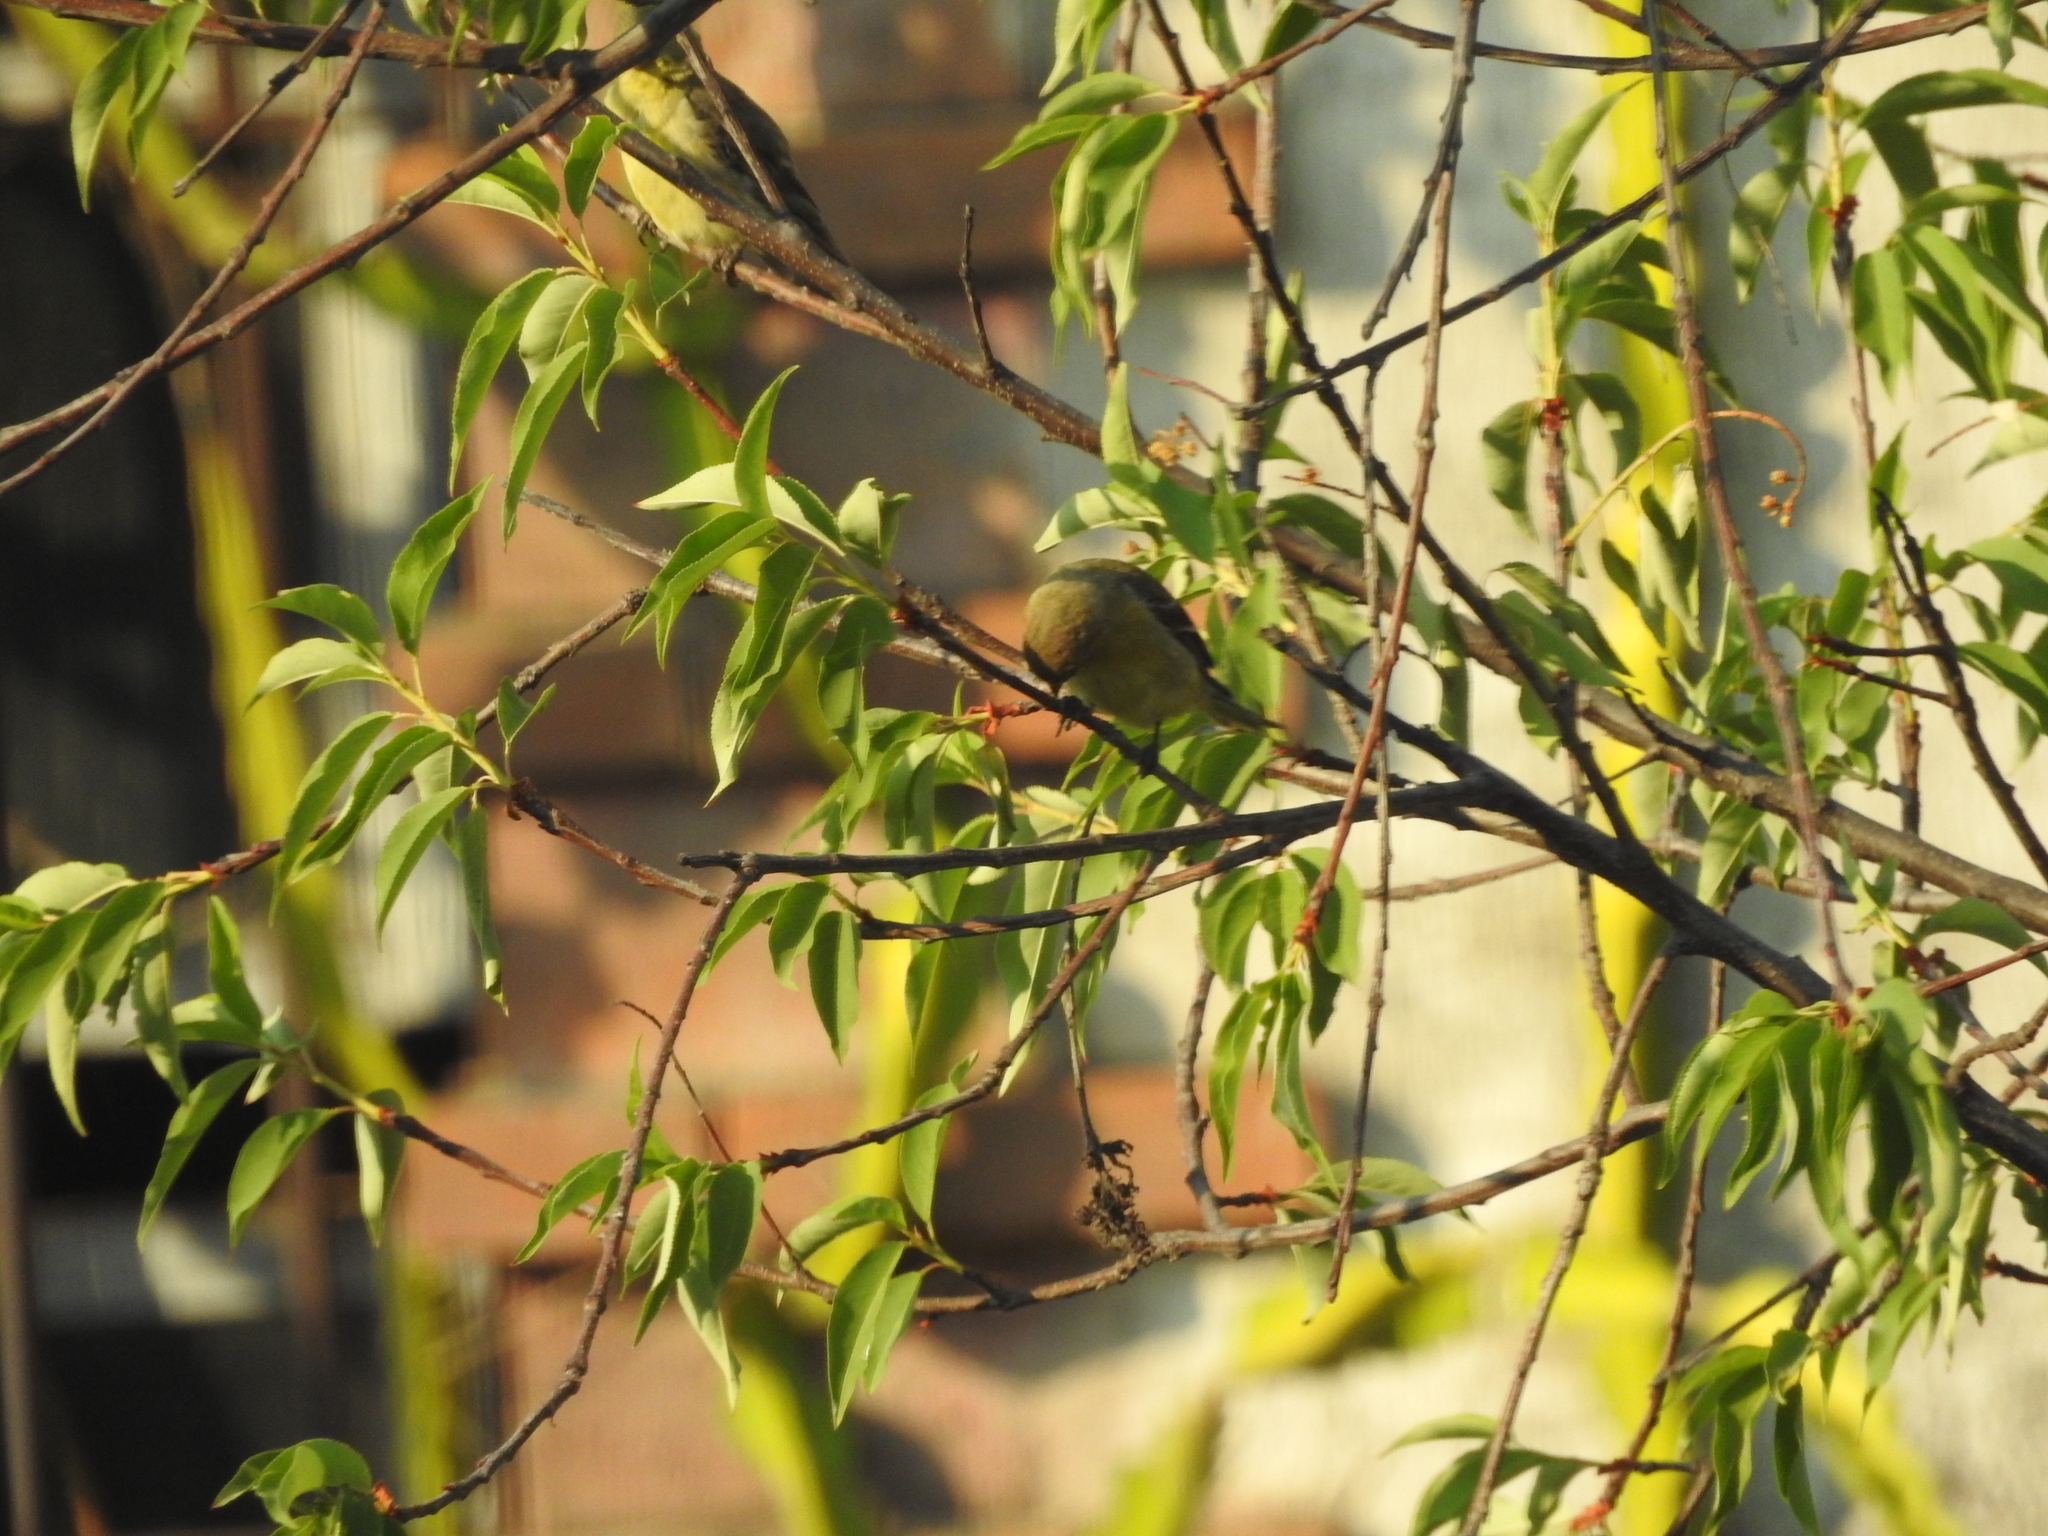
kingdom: Animalia
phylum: Chordata
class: Aves
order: Passeriformes
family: Fringillidae
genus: Haemorhous
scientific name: Haemorhous mexicanus
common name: House finch
